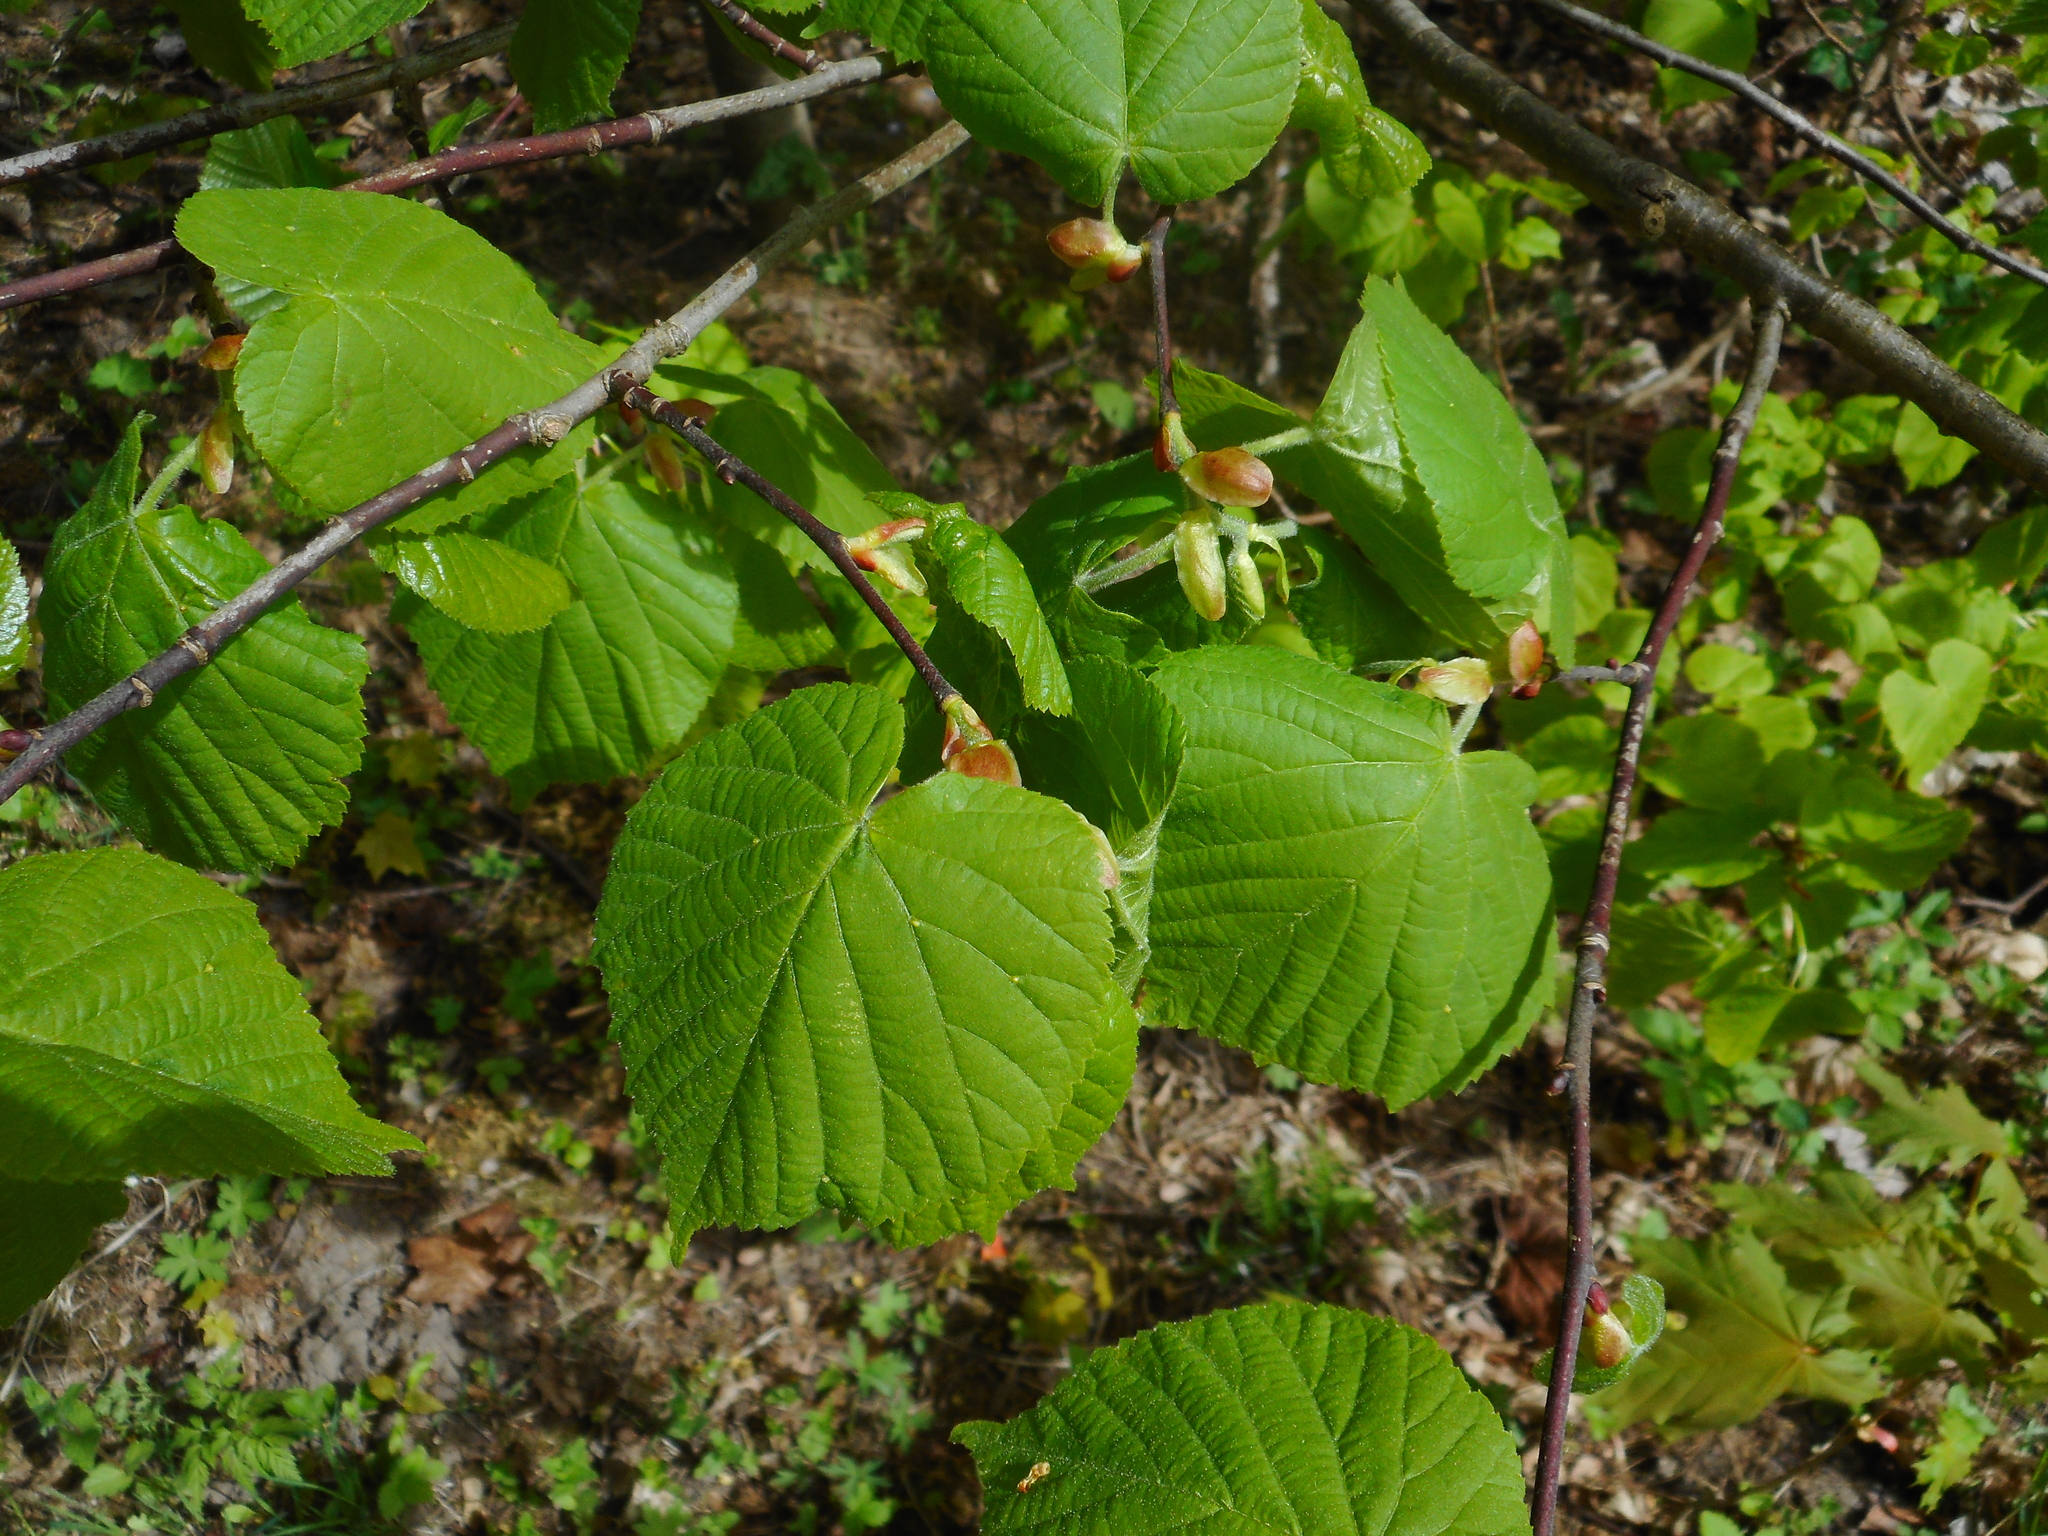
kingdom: Plantae
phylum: Tracheophyta
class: Magnoliopsida
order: Malvales
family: Malvaceae
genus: Tilia
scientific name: Tilia cordata
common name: Small-leaved lime
